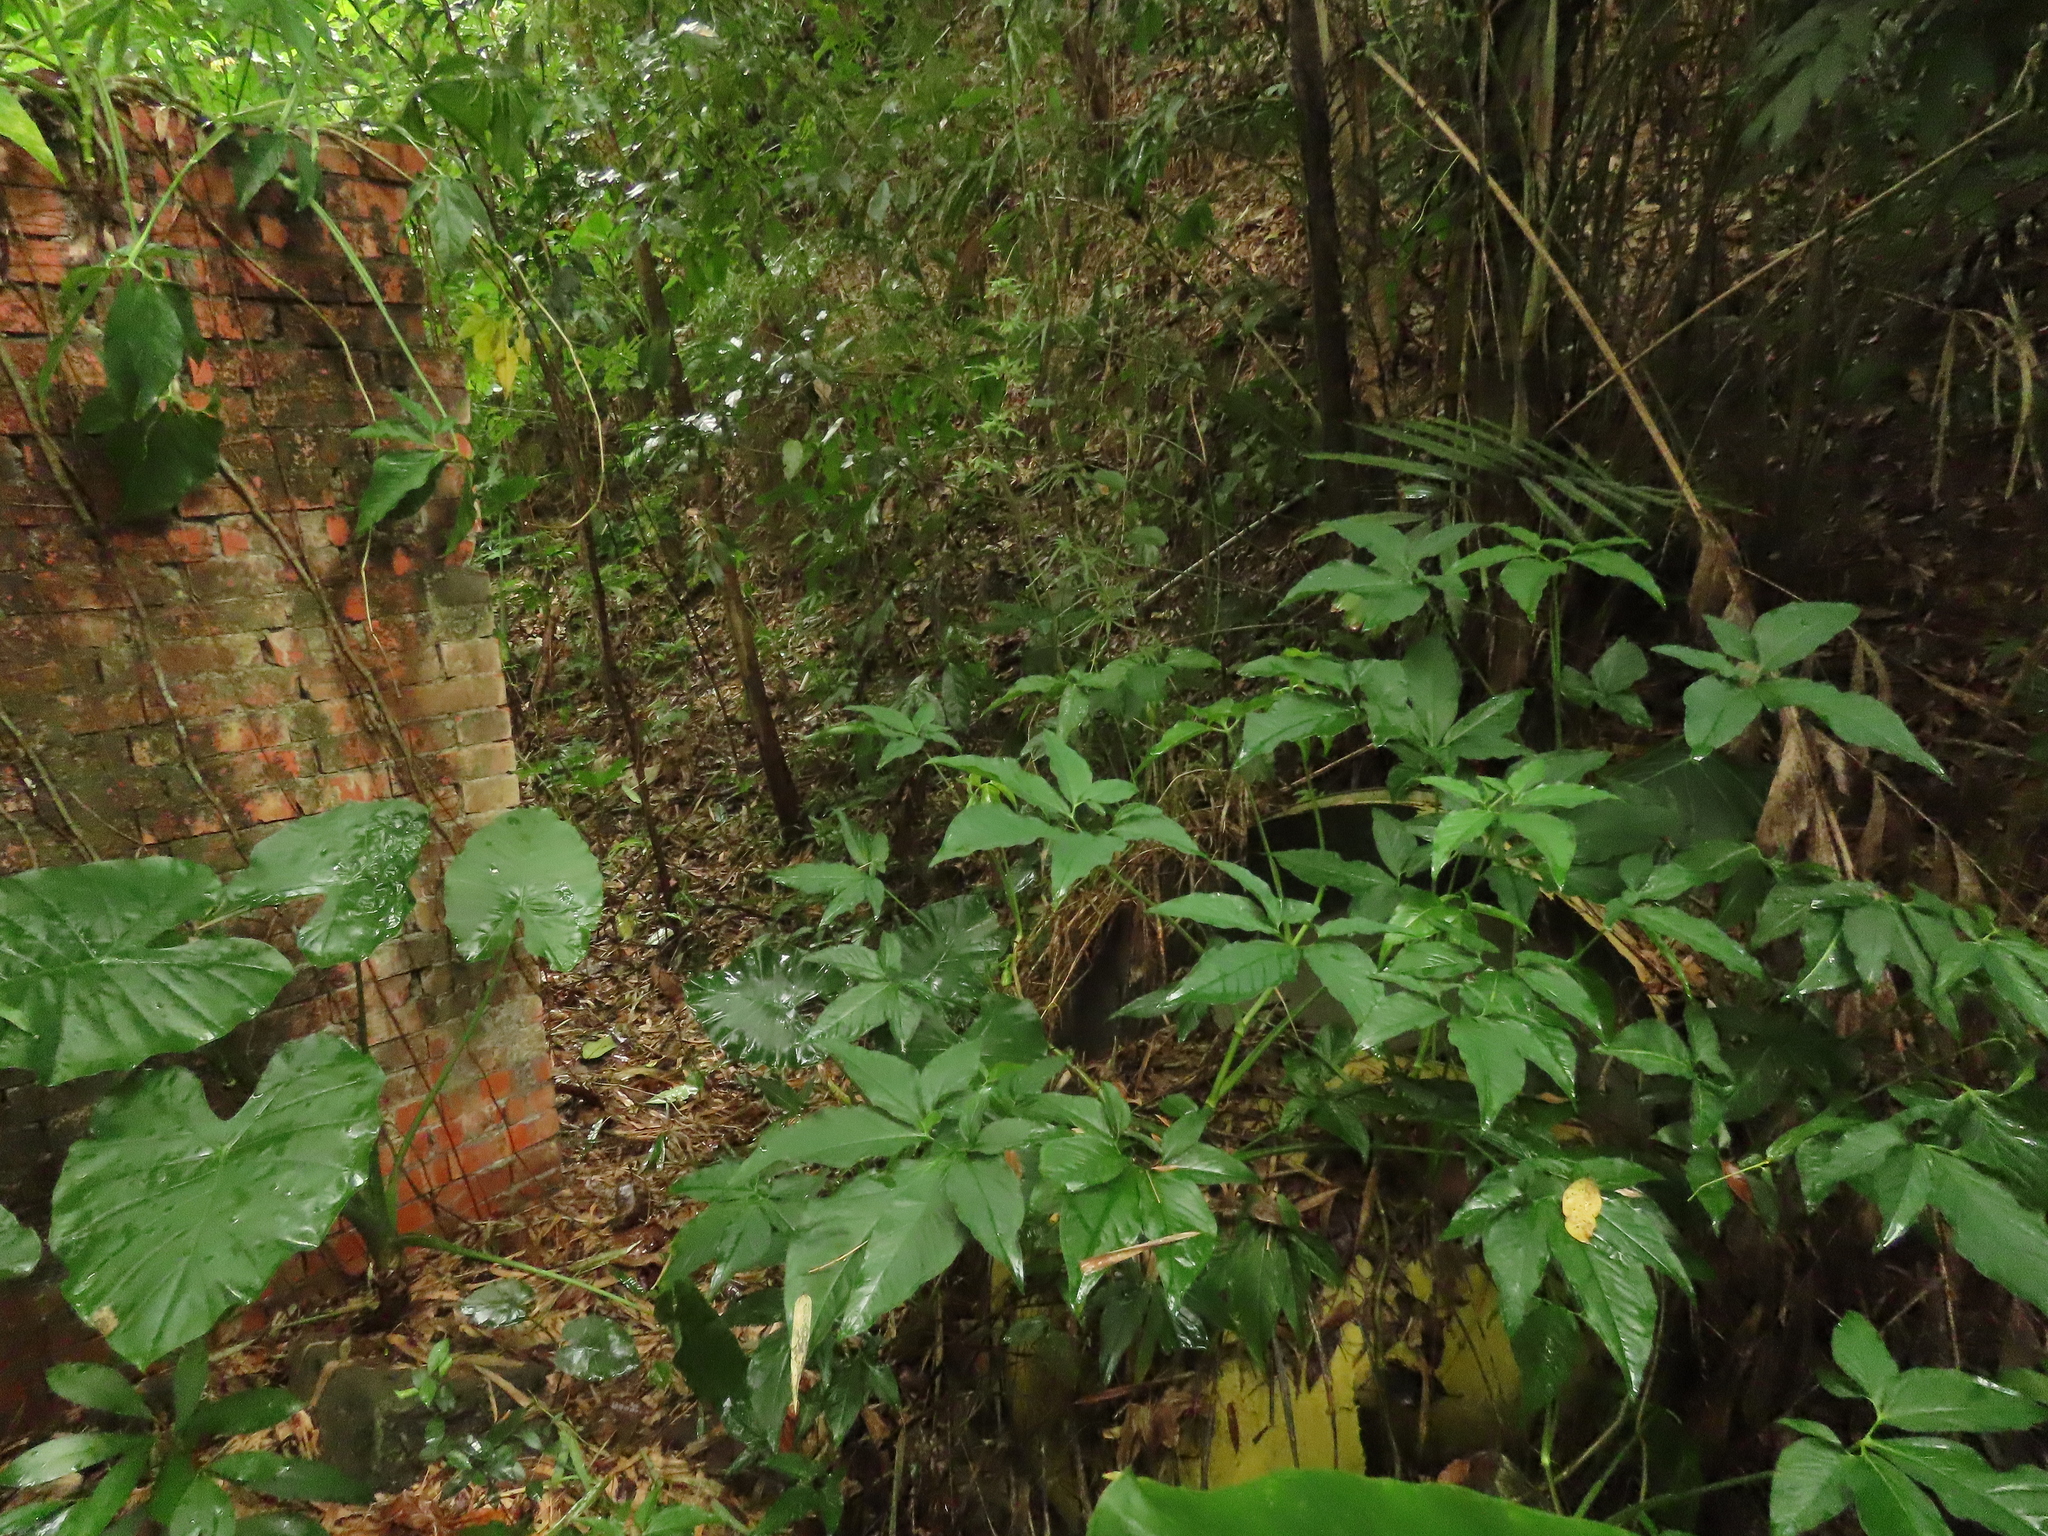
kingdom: Plantae
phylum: Tracheophyta
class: Liliopsida
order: Alismatales
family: Araceae
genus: Syngonium
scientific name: Syngonium angustatum
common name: Fivefingers
